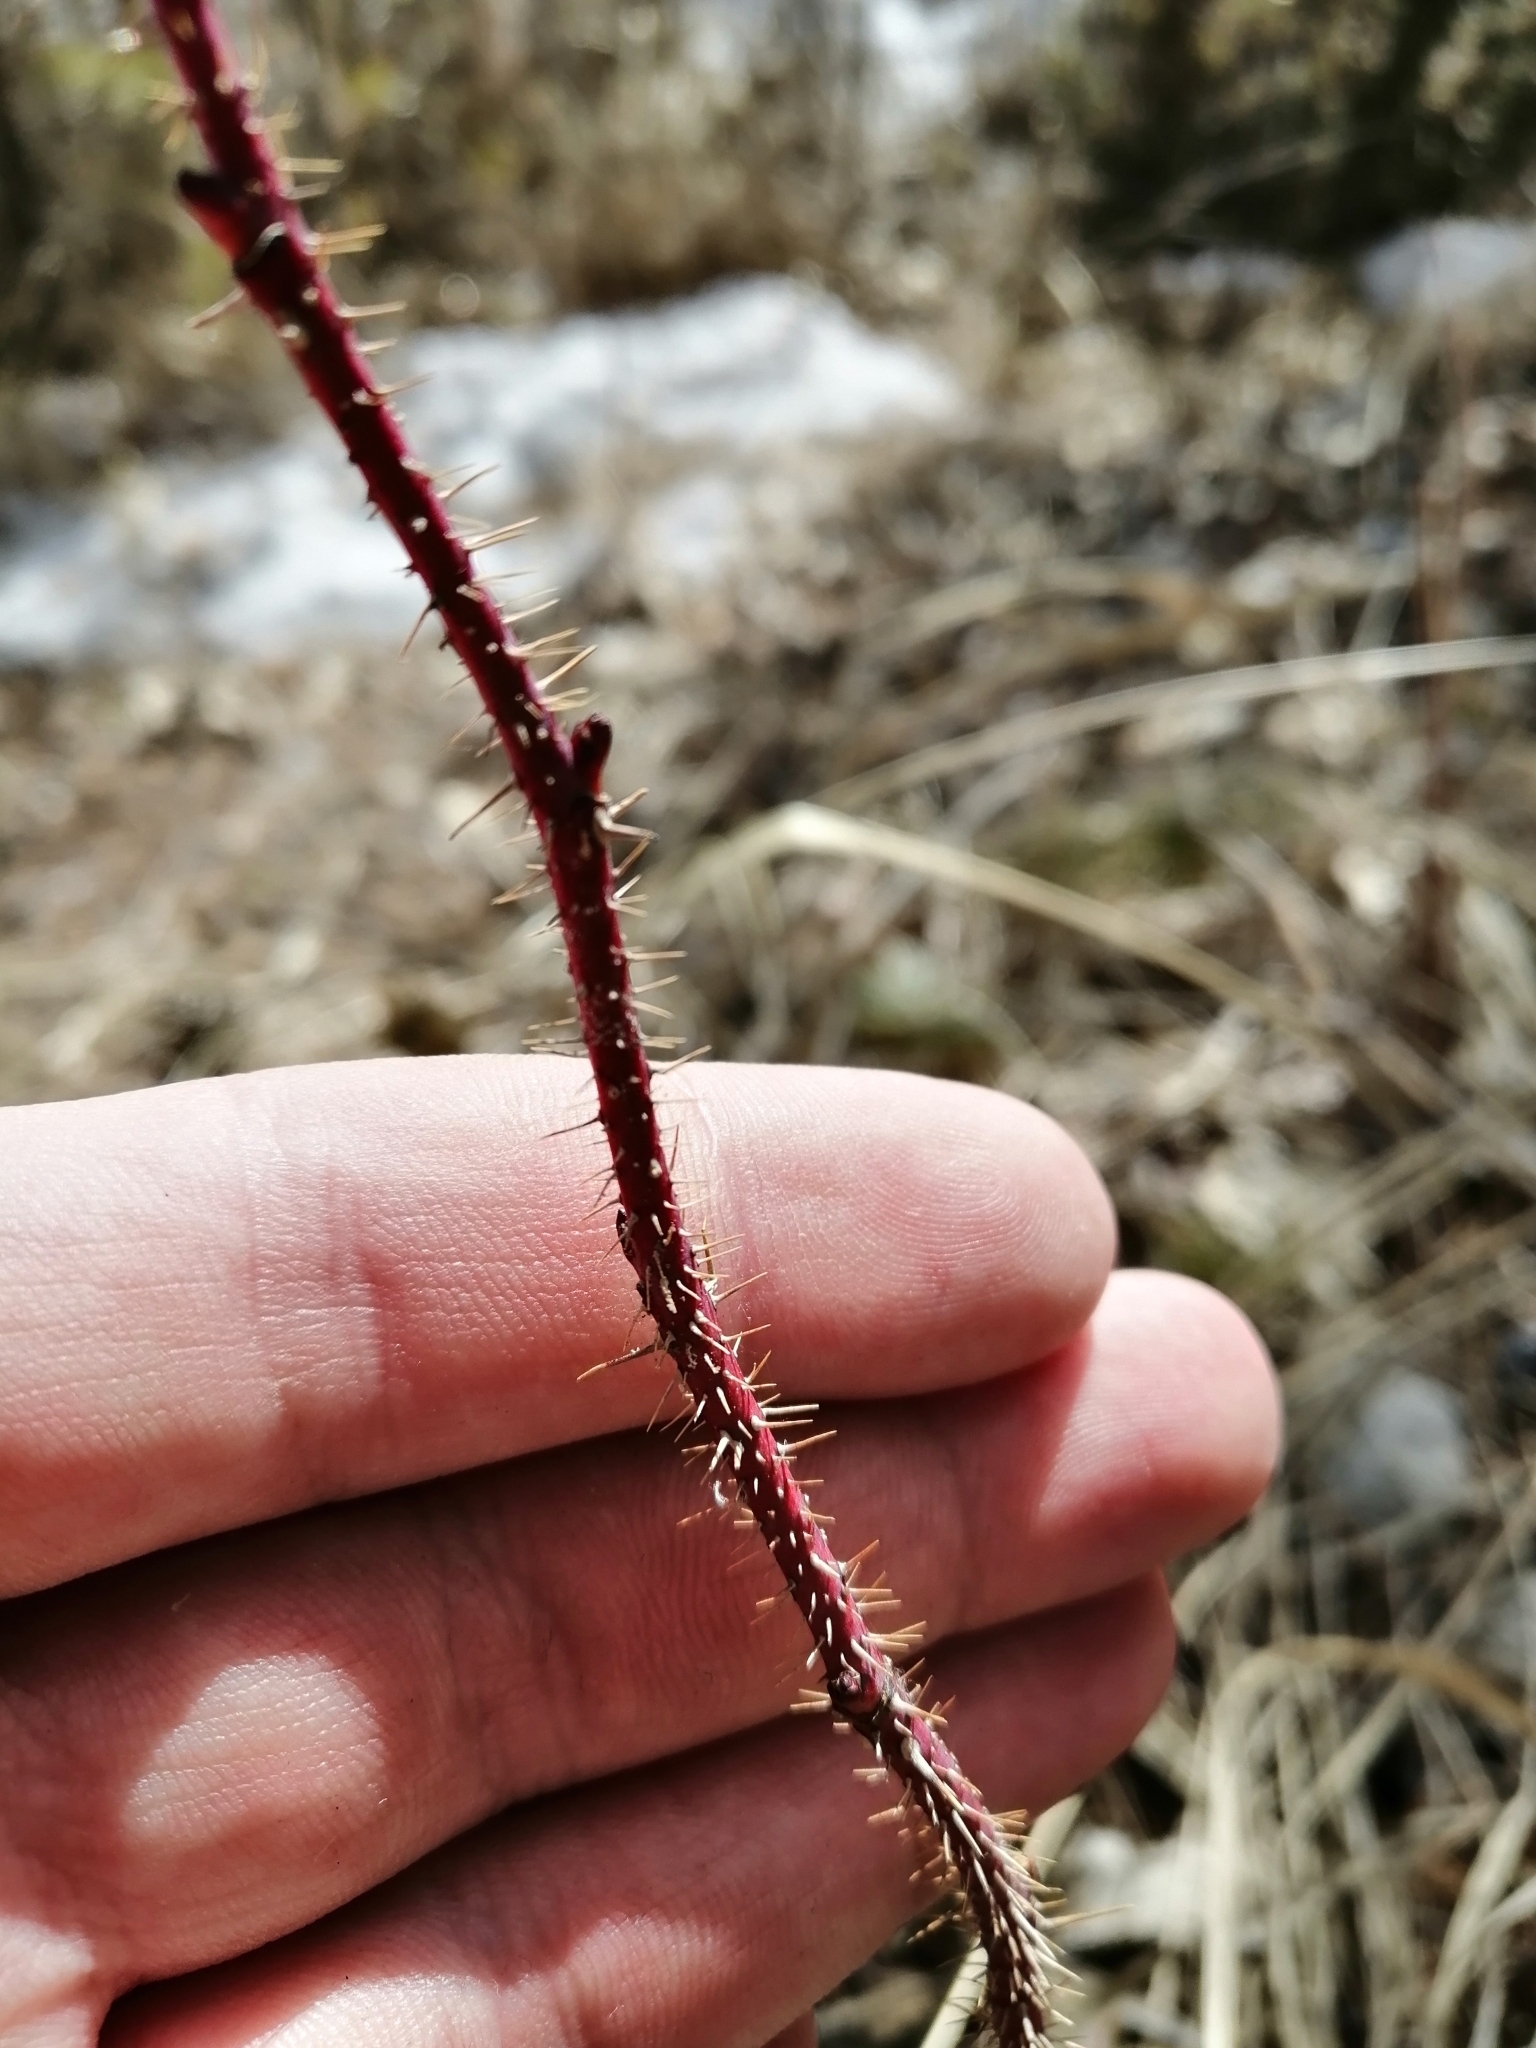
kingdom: Plantae
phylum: Tracheophyta
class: Magnoliopsida
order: Rosales
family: Rosaceae
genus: Rosa
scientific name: Rosa acicularis
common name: Prickly rose
